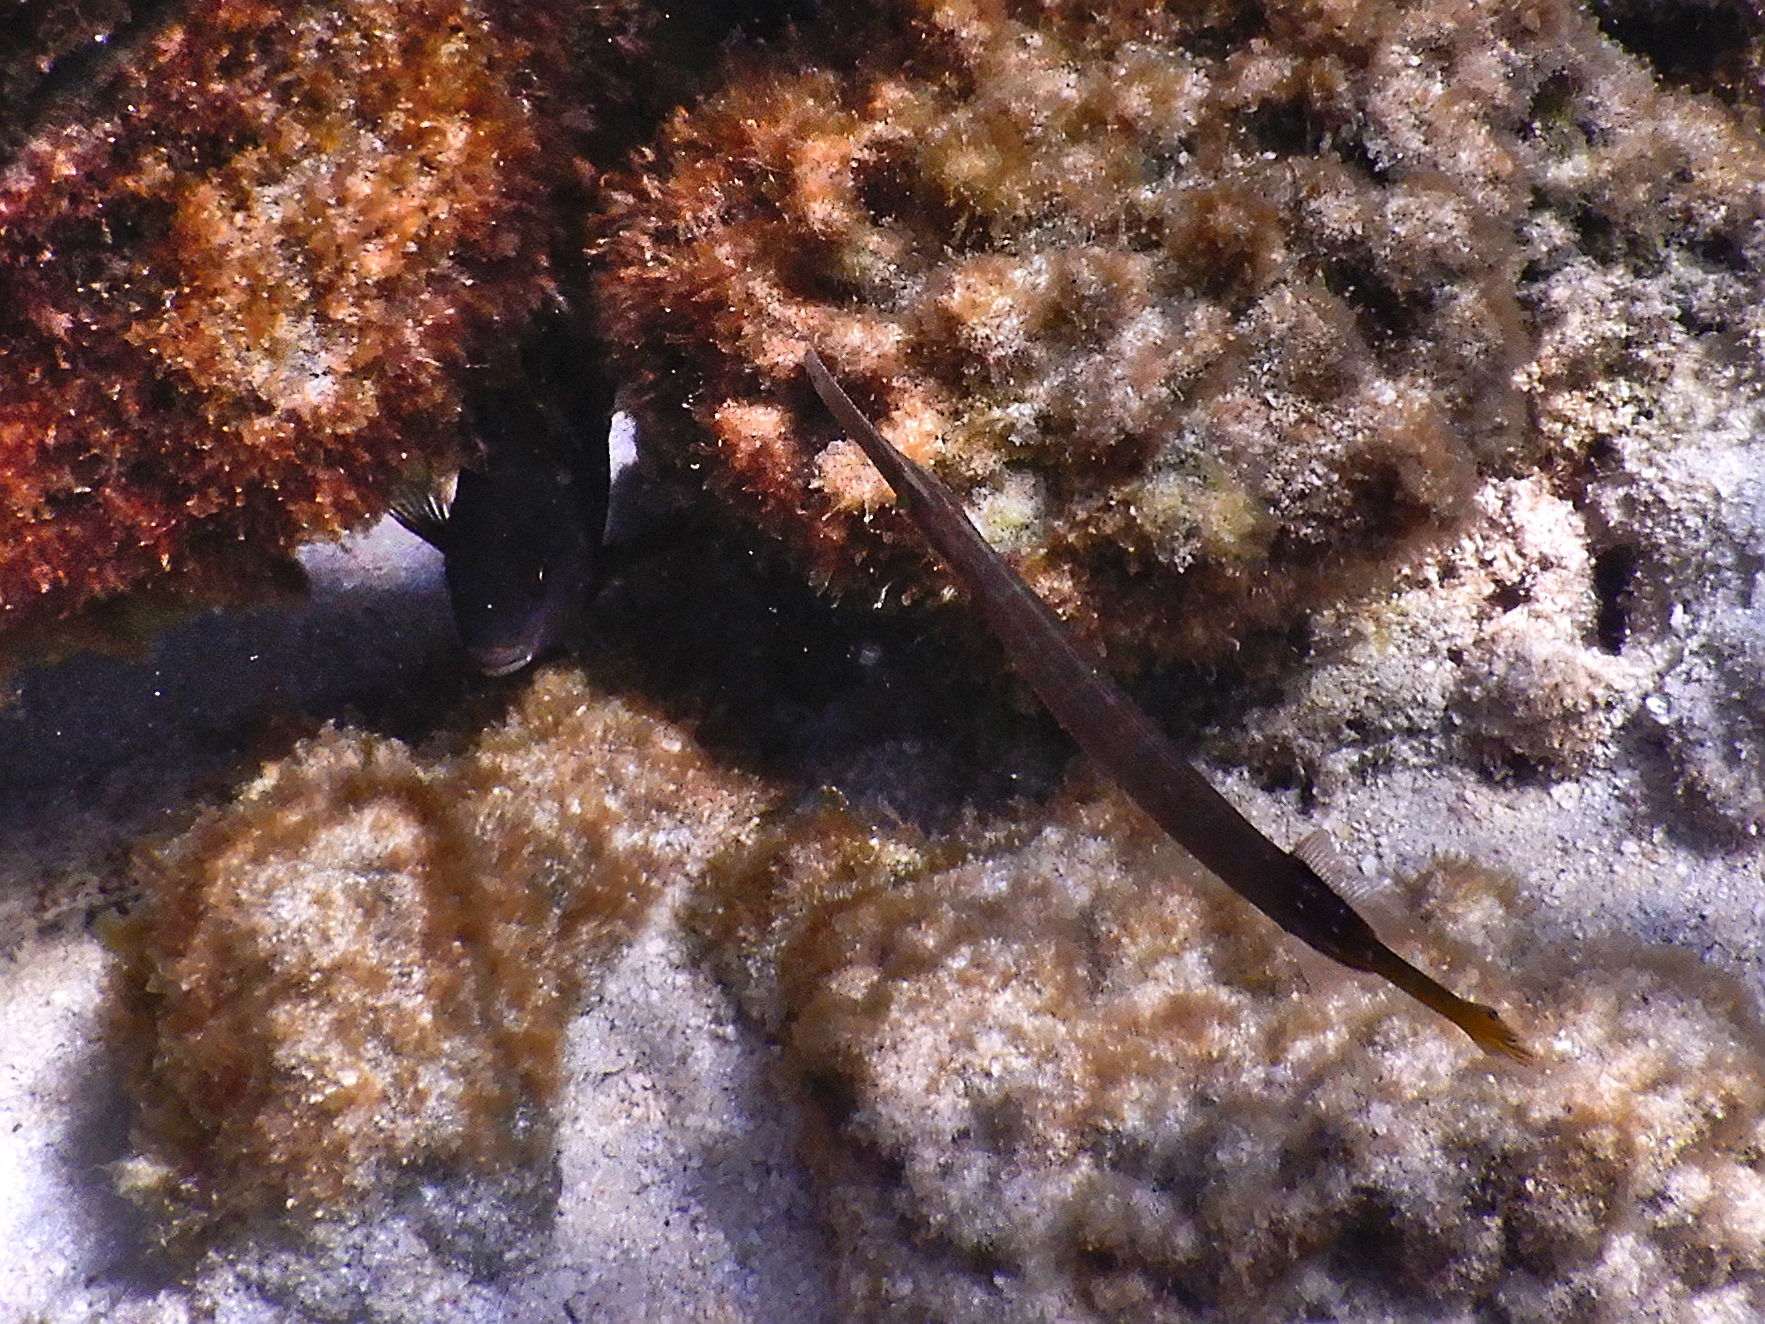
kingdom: Animalia
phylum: Chordata
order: Syngnathiformes
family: Aulostomidae
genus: Aulostomus
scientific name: Aulostomus chinensis
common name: Chinese trumpetfish
